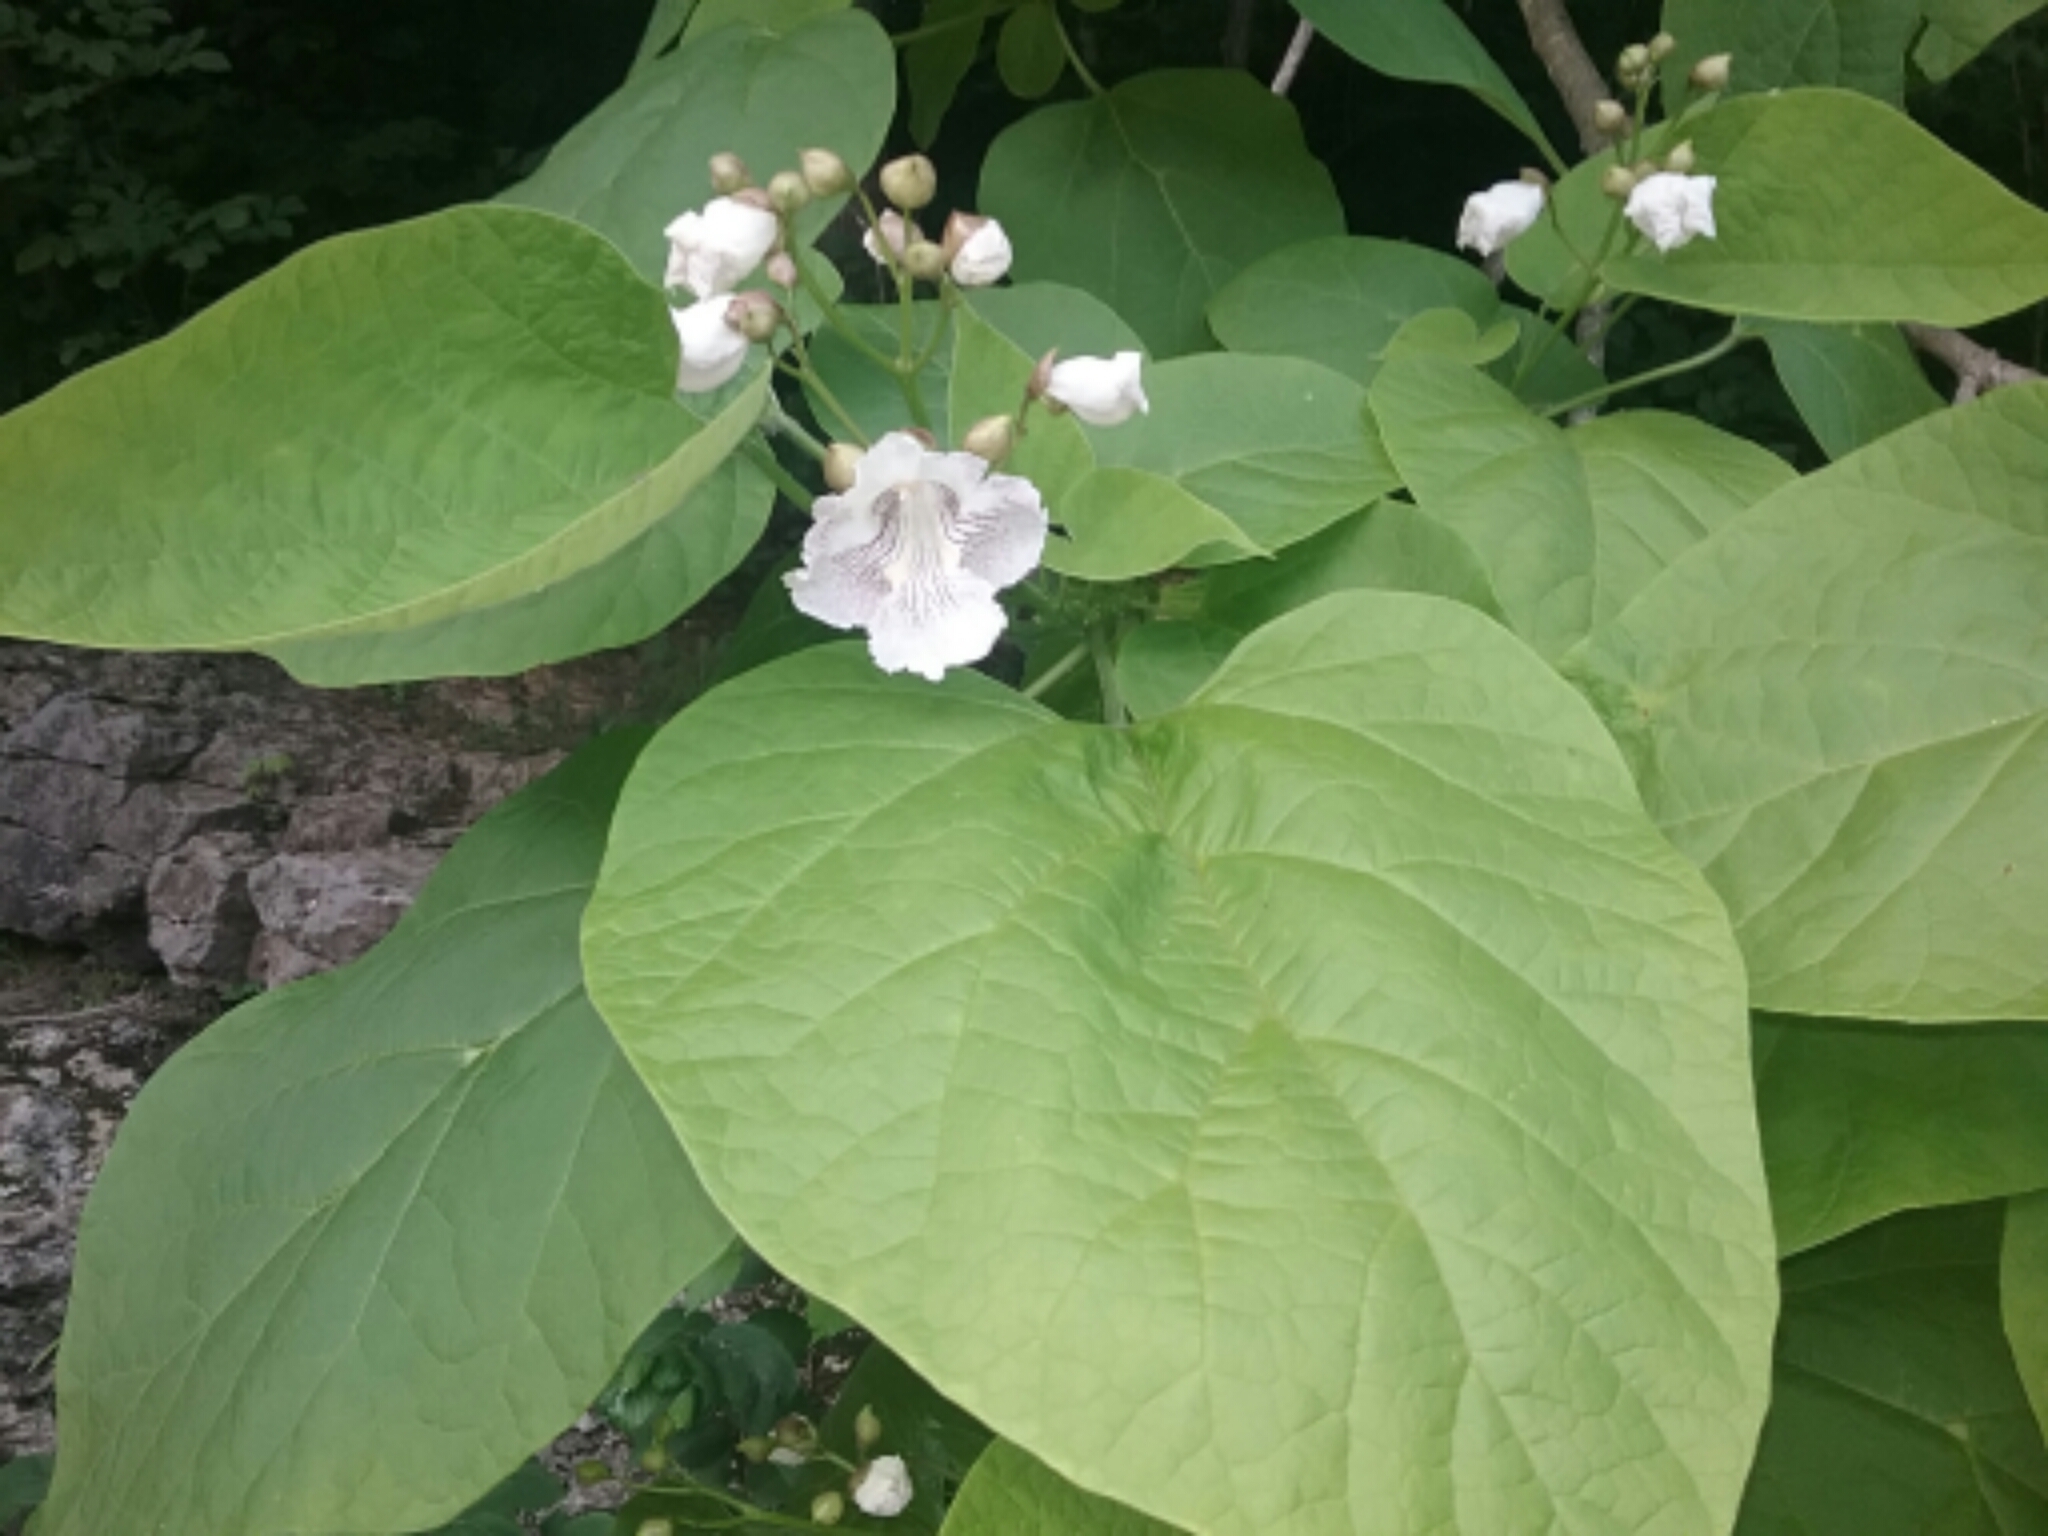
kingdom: Plantae
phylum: Tracheophyta
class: Magnoliopsida
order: Lamiales
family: Bignoniaceae
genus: Catalpa
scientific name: Catalpa speciosa
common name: Northern catalpa
